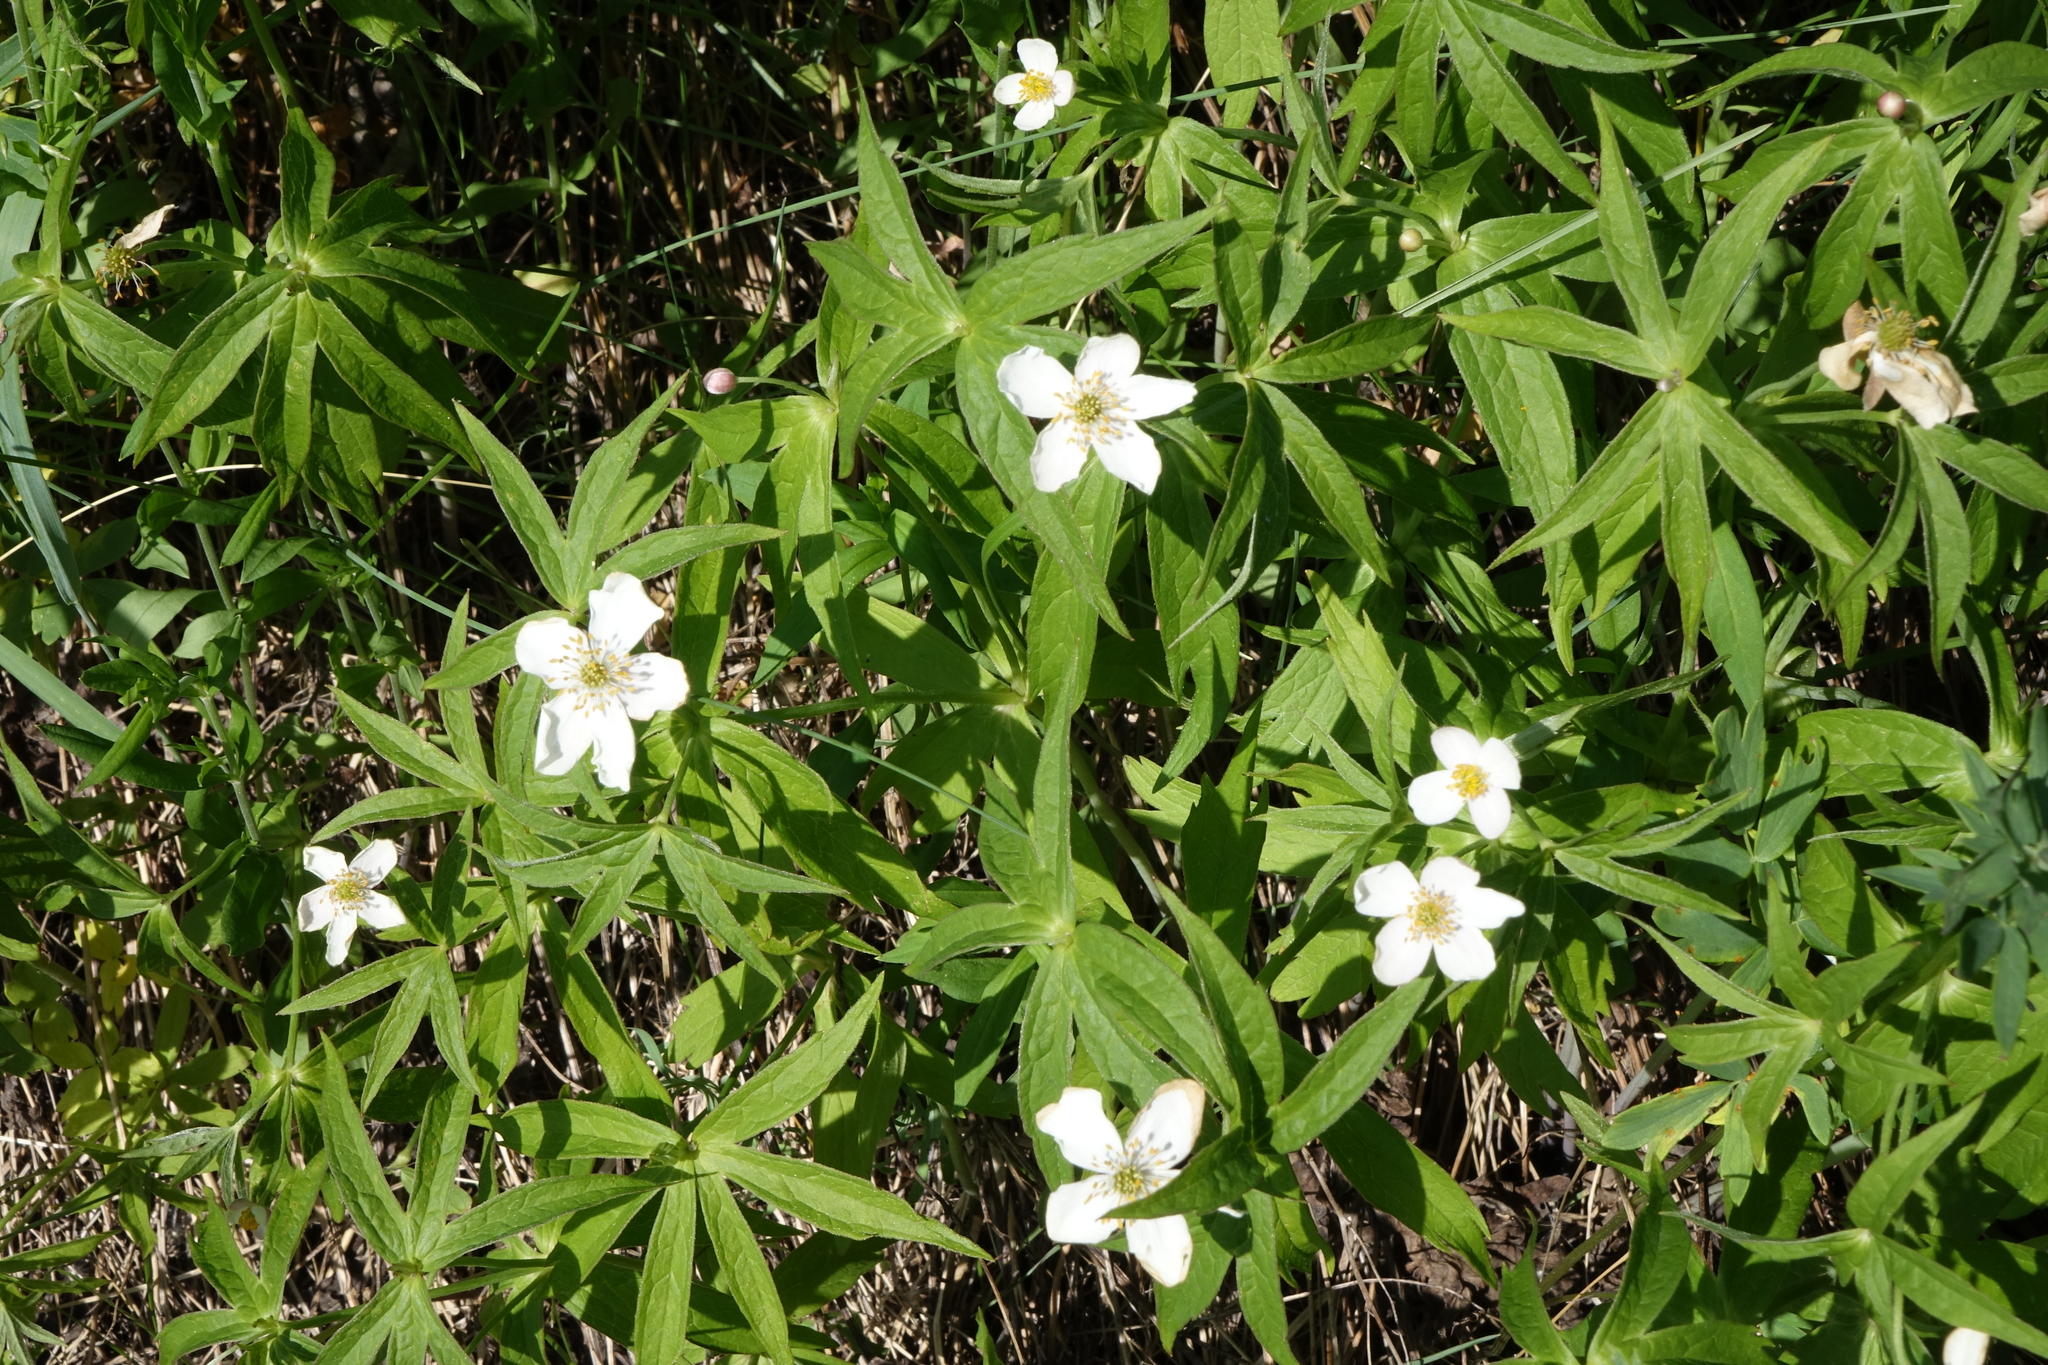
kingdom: Plantae
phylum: Tracheophyta
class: Magnoliopsida
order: Ranunculales
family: Ranunculaceae
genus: Anemonastrum
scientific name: Anemonastrum dichotomum
